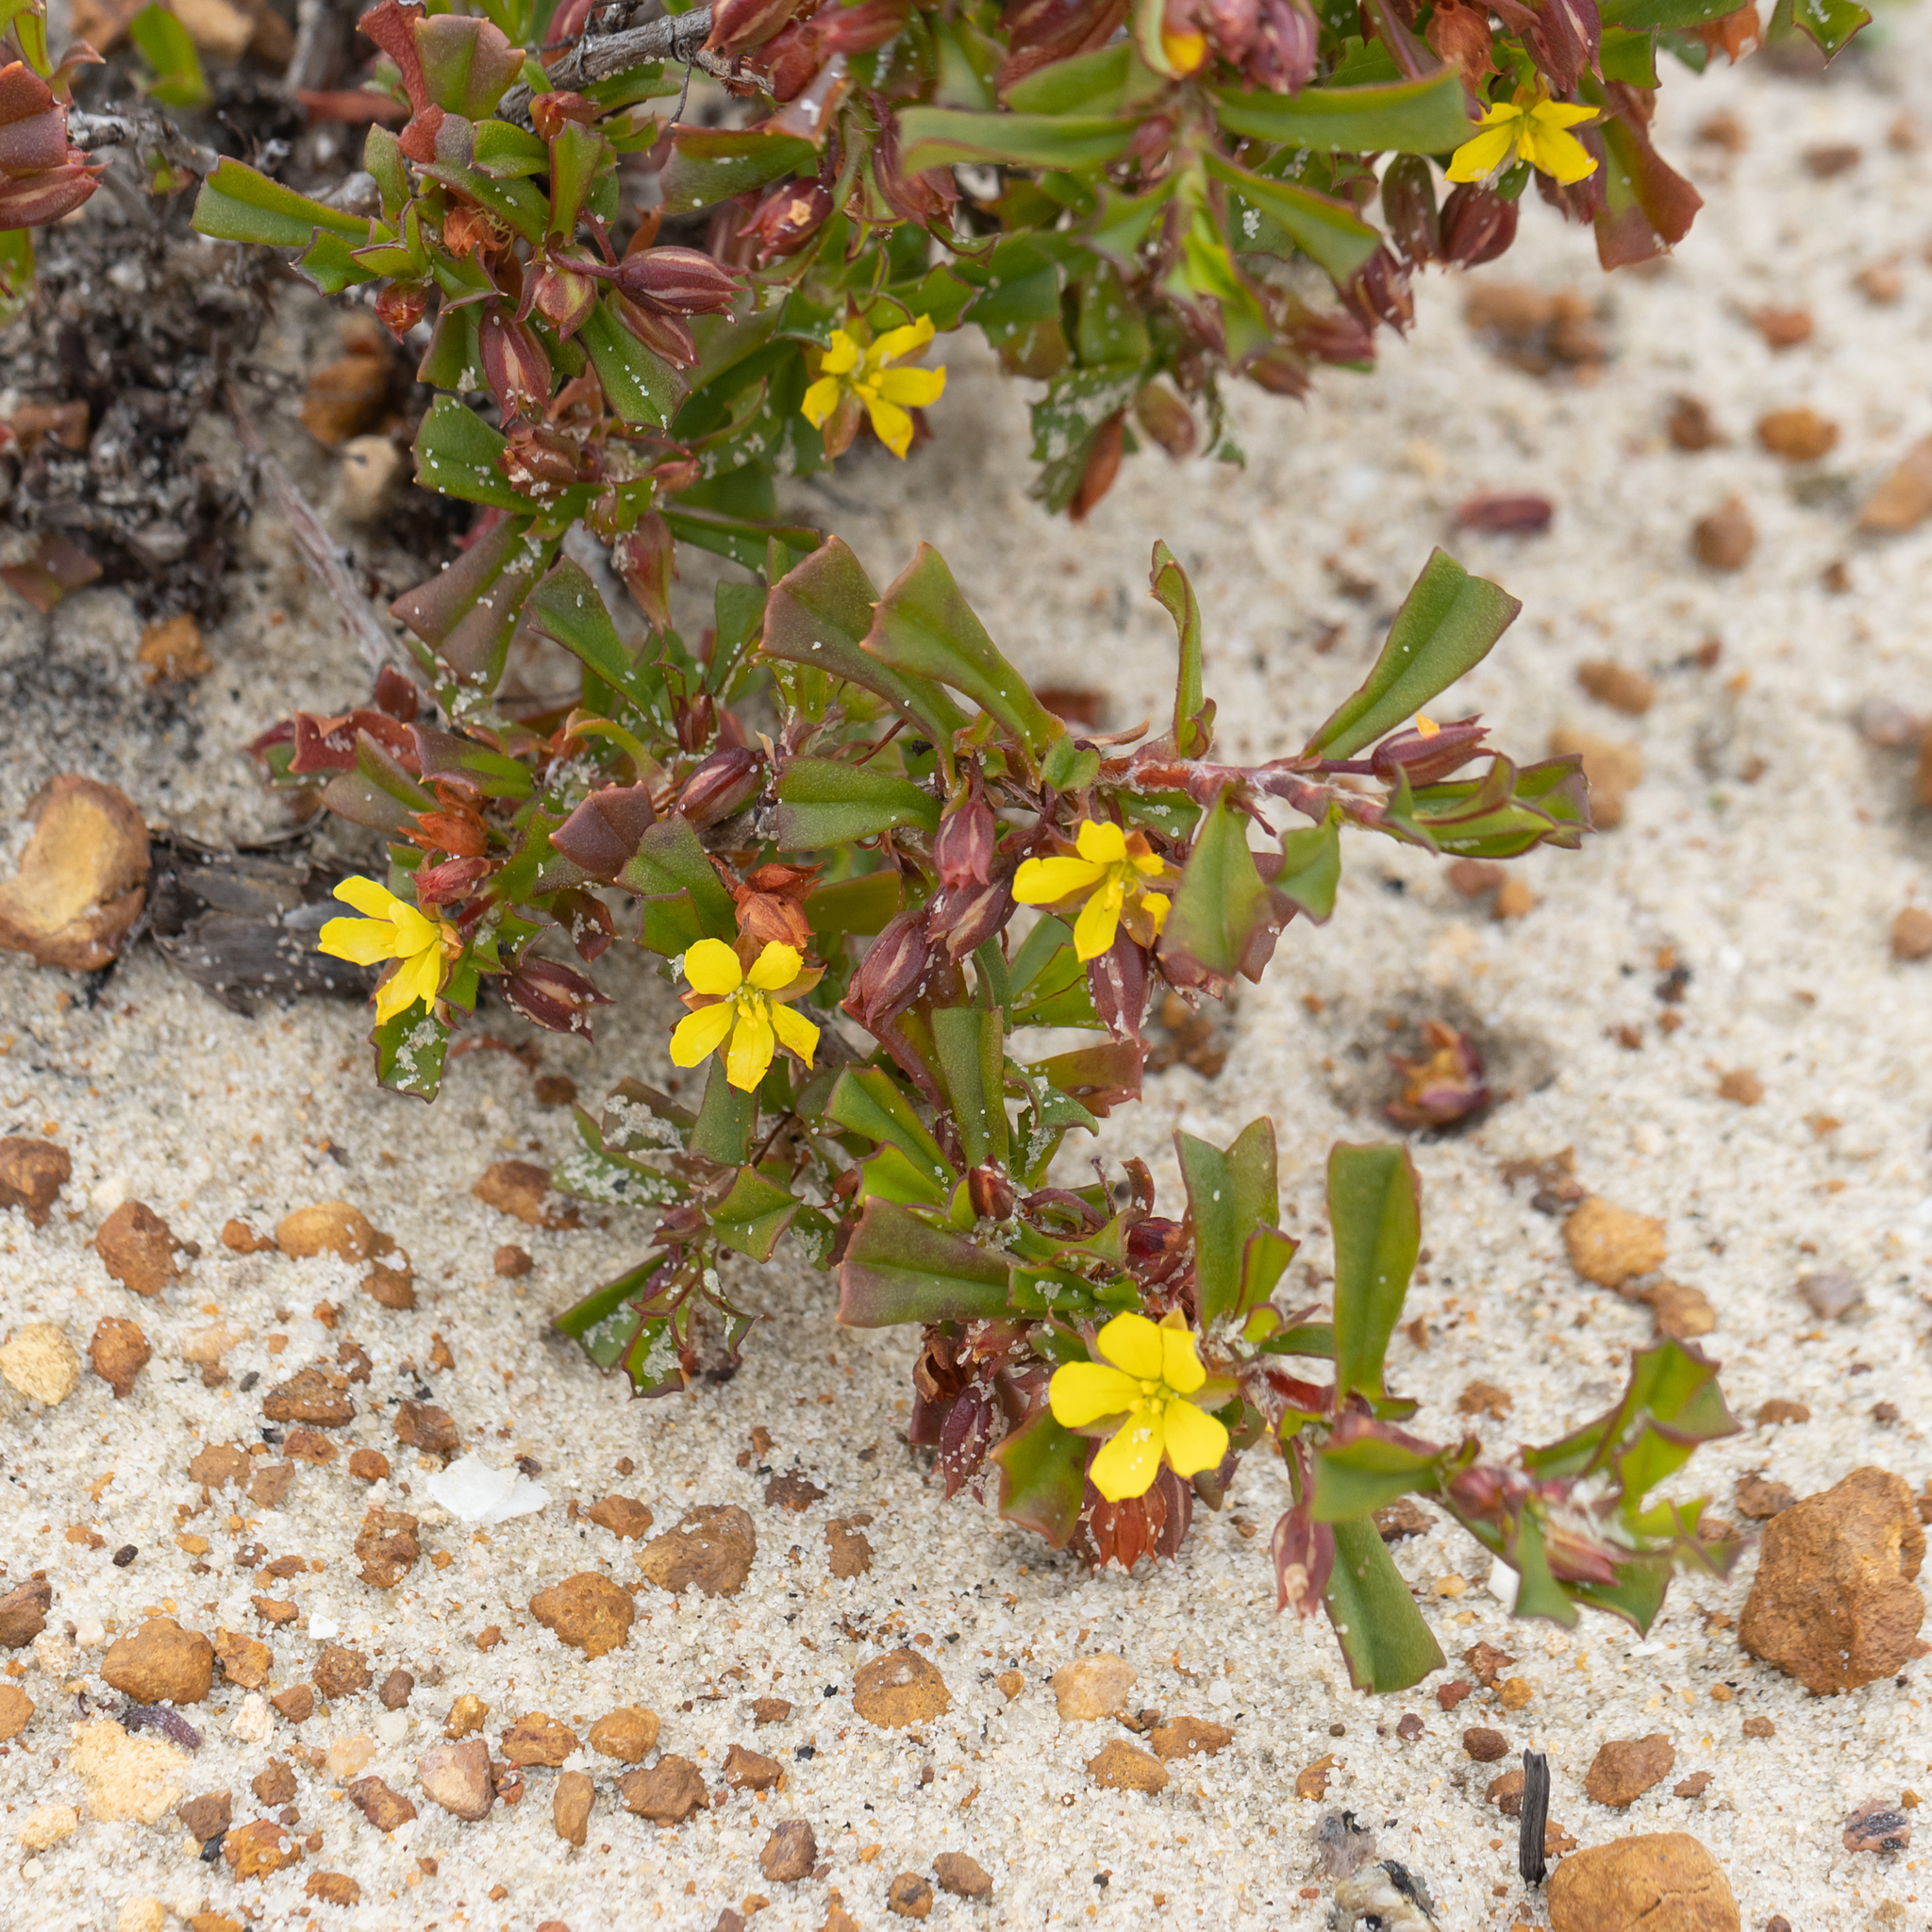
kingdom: Plantae
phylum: Tracheophyta
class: Magnoliopsida
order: Dilleniales
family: Dilleniaceae
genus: Hibbertia
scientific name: Hibbertia racemosa
